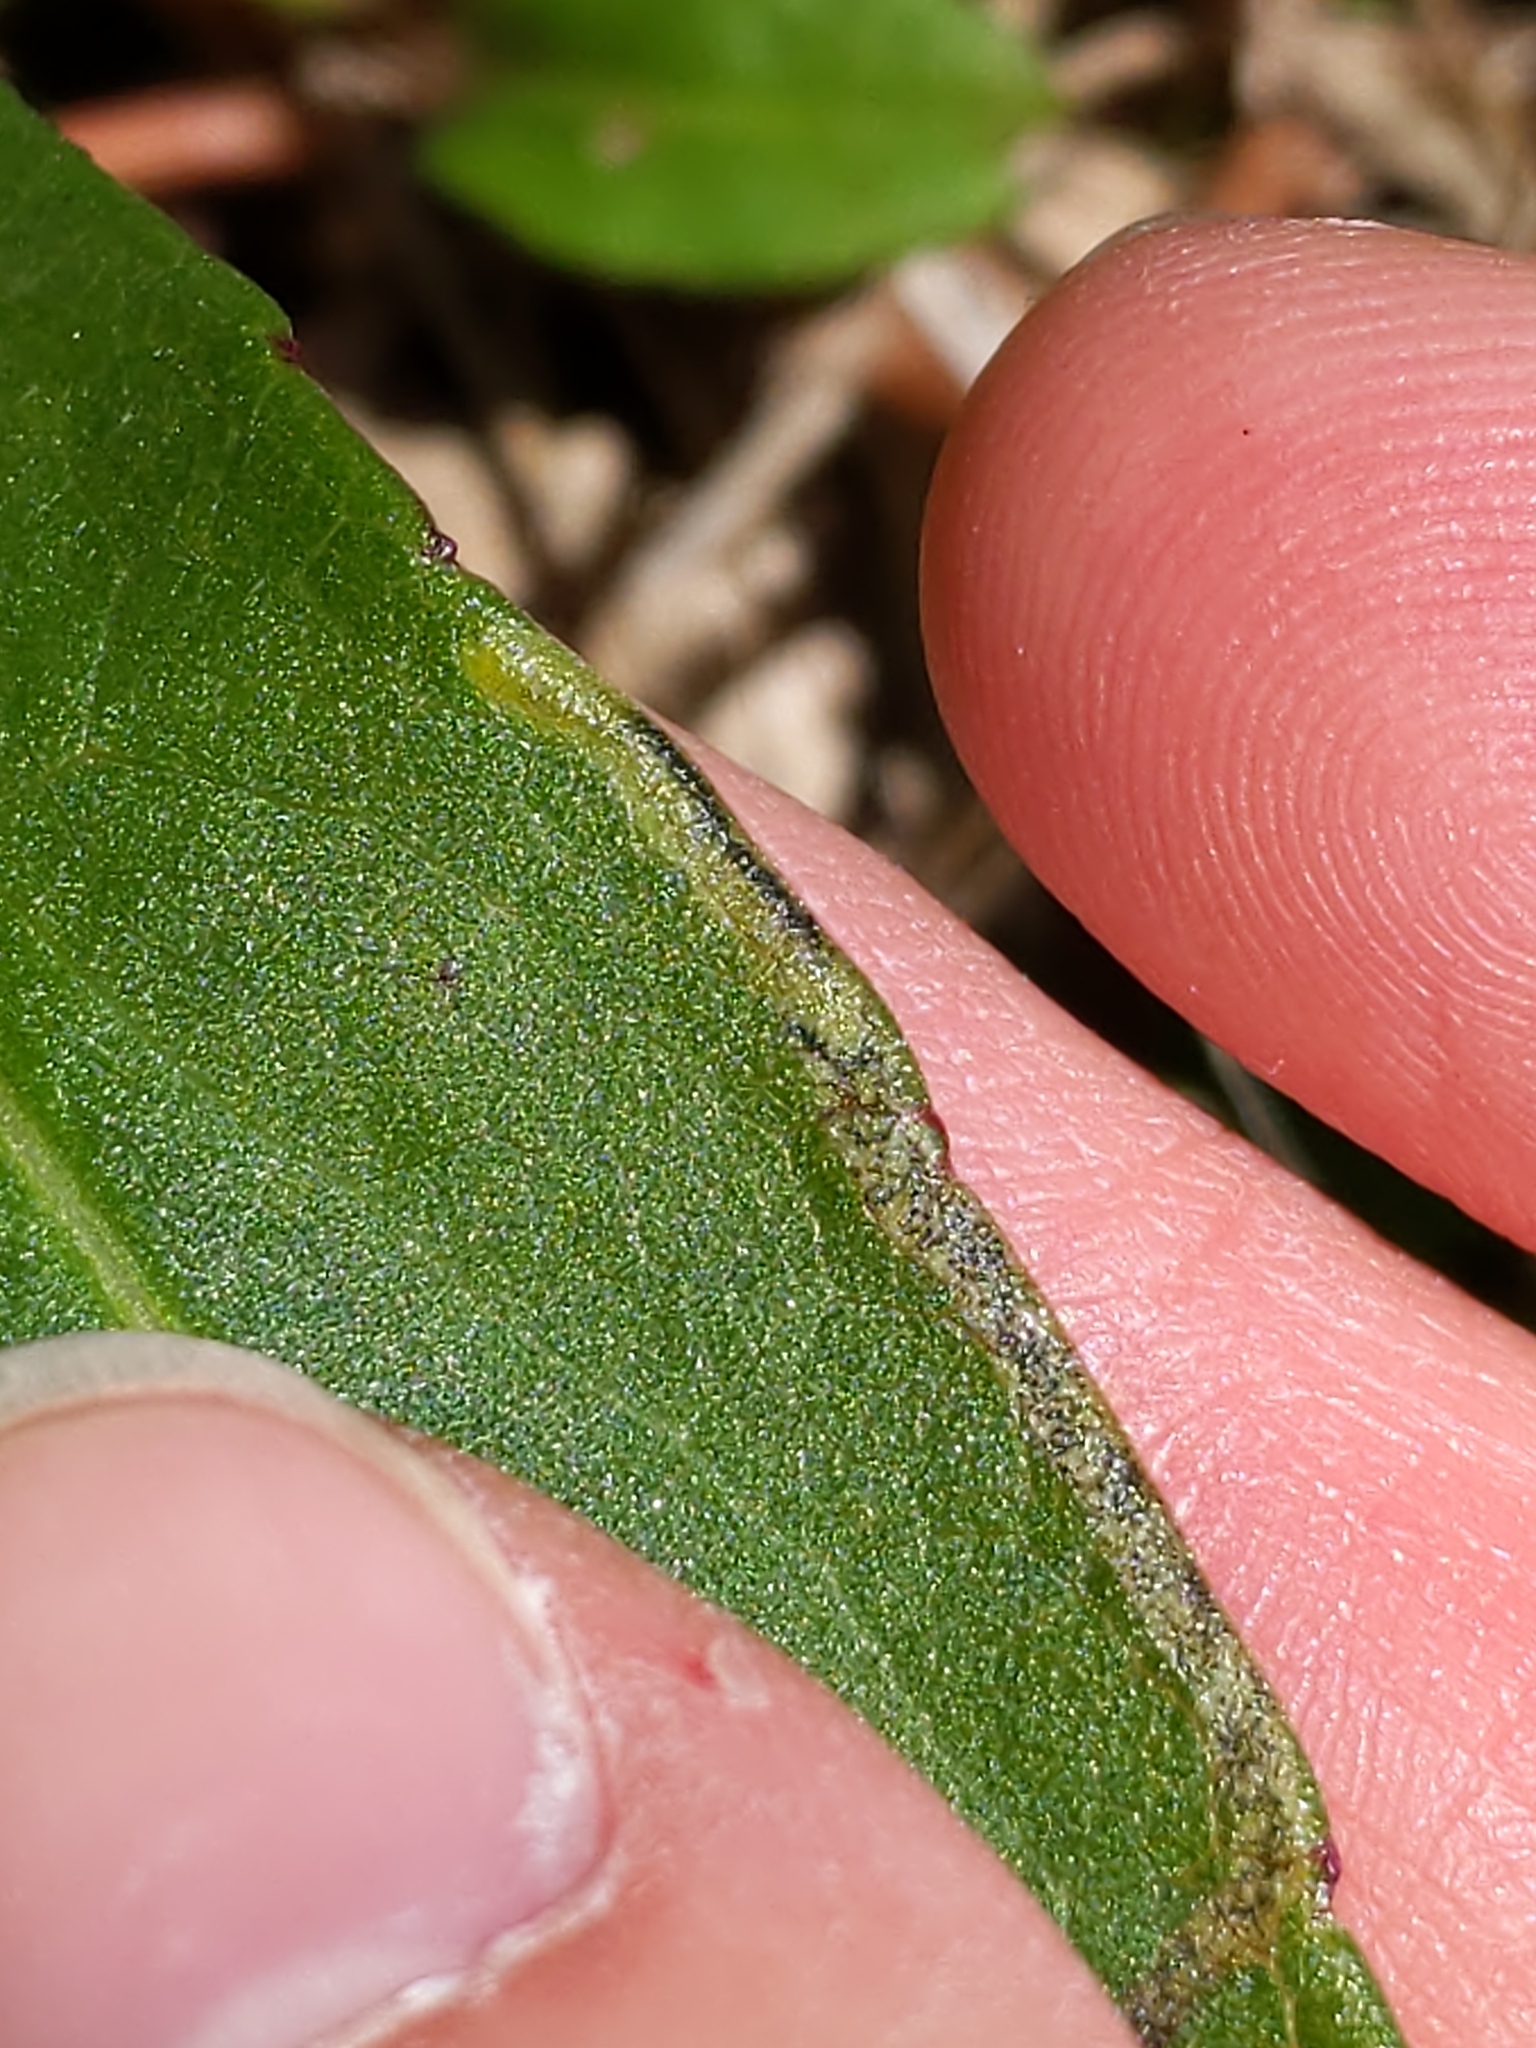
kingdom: Animalia
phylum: Arthropoda
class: Insecta
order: Diptera
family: Agromyzidae
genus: Liriomyza
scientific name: Liriomyza eupatorii
